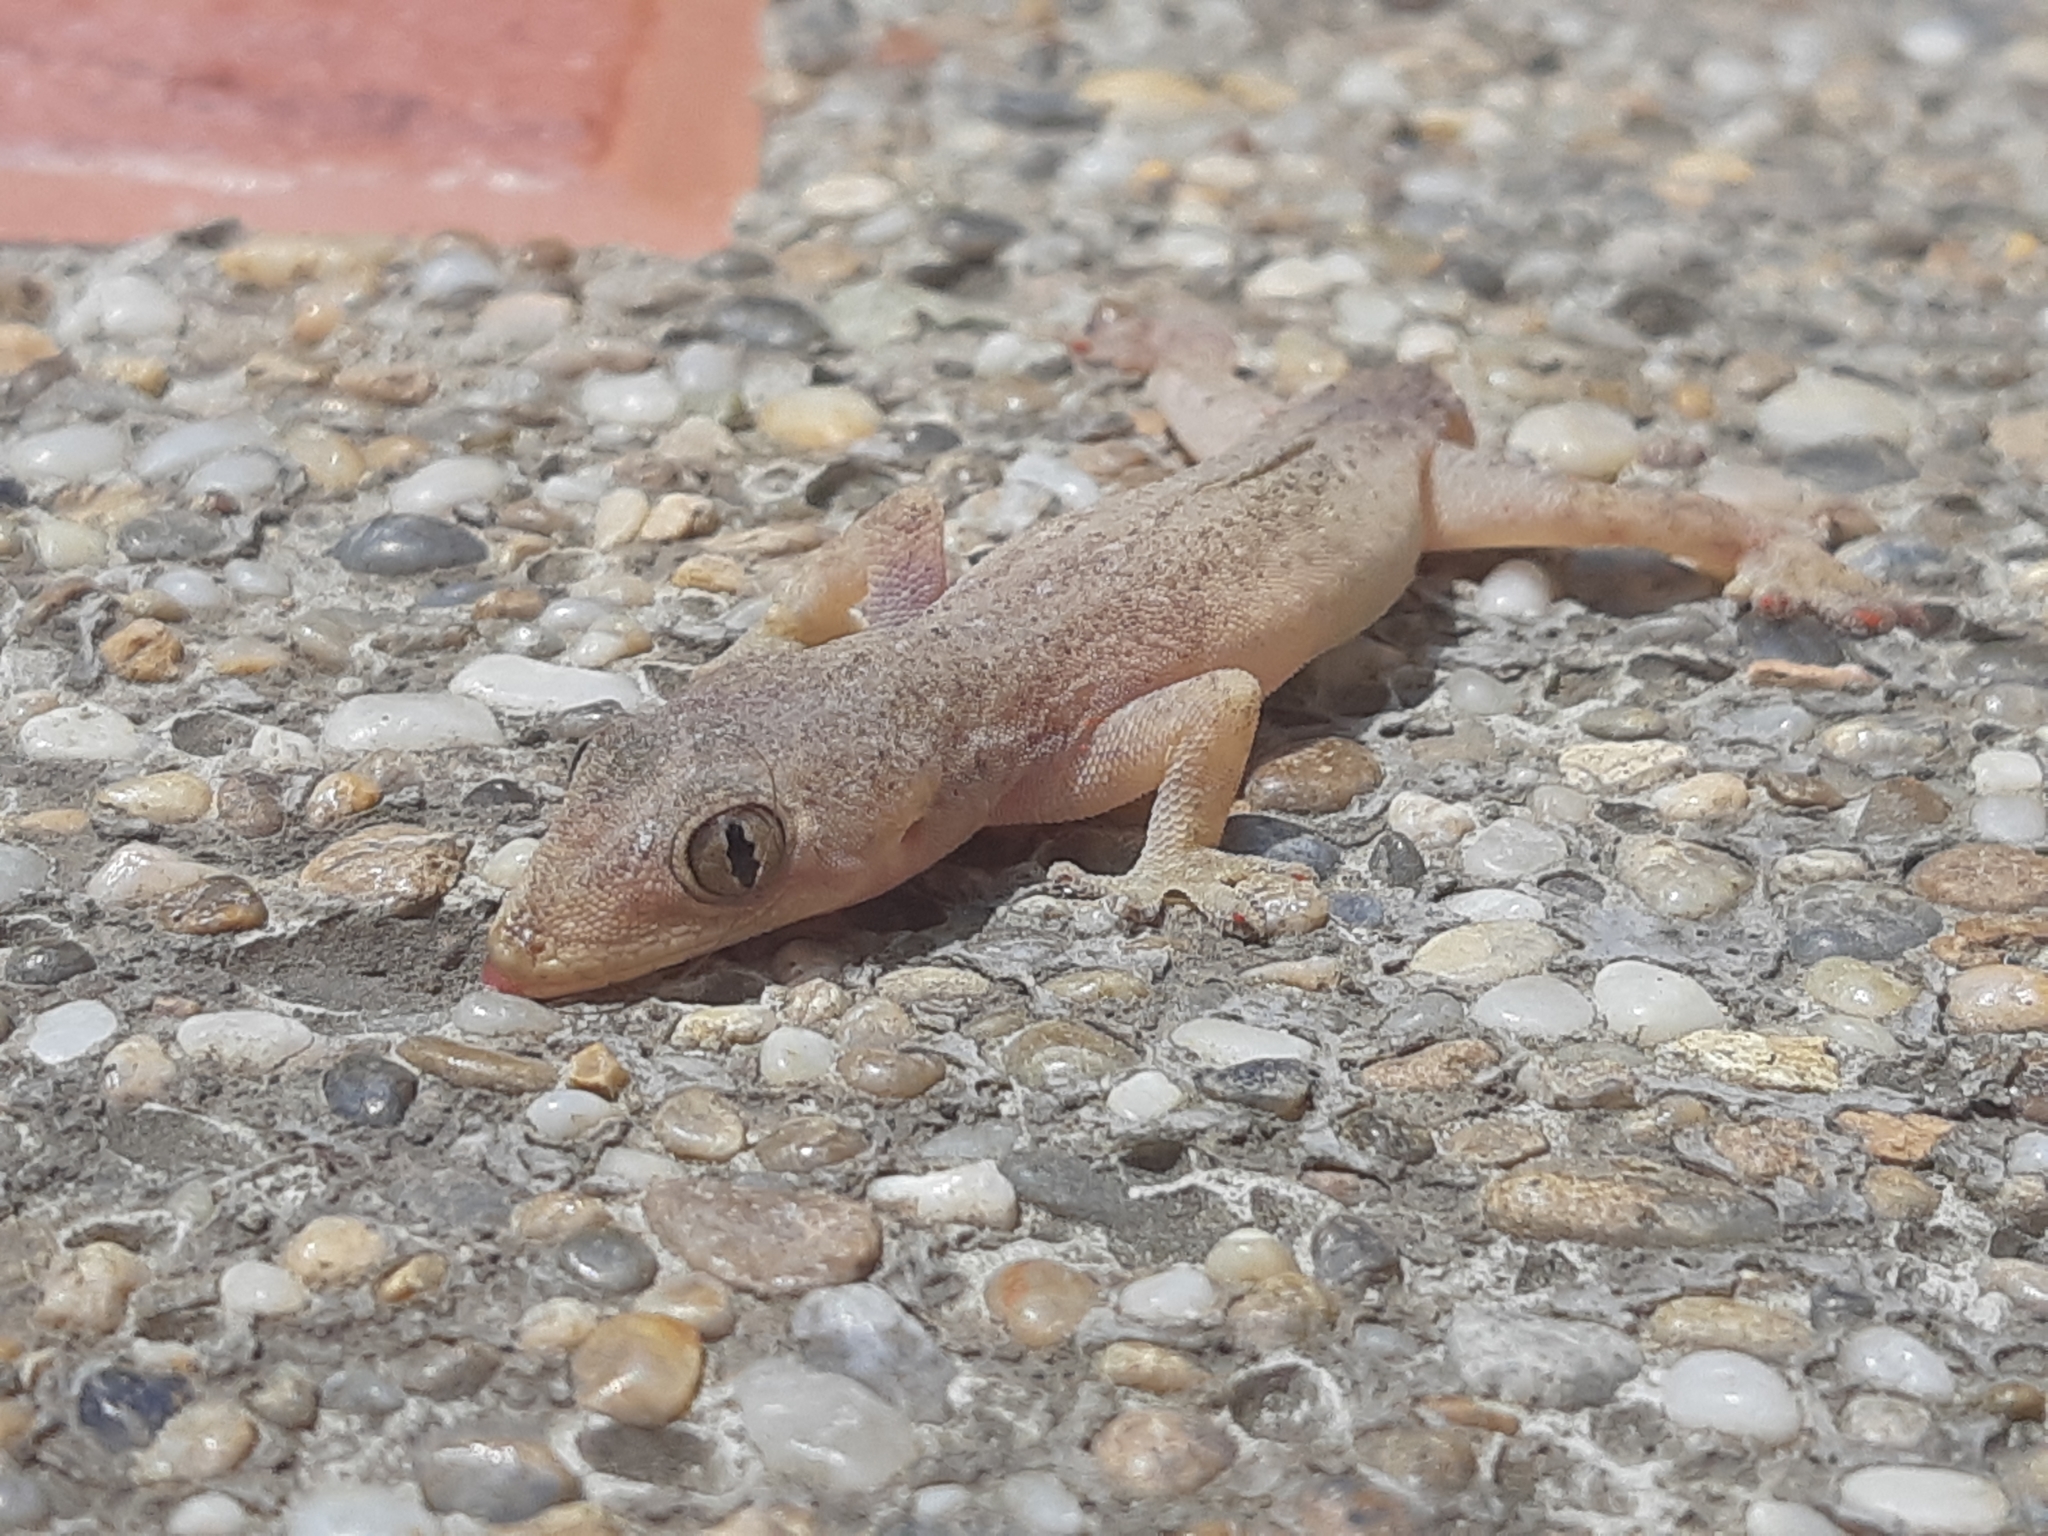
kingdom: Animalia
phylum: Chordata
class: Squamata
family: Gekkonidae
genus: Hemidactylus
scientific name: Hemidactylus frenatus
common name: Common house gecko
